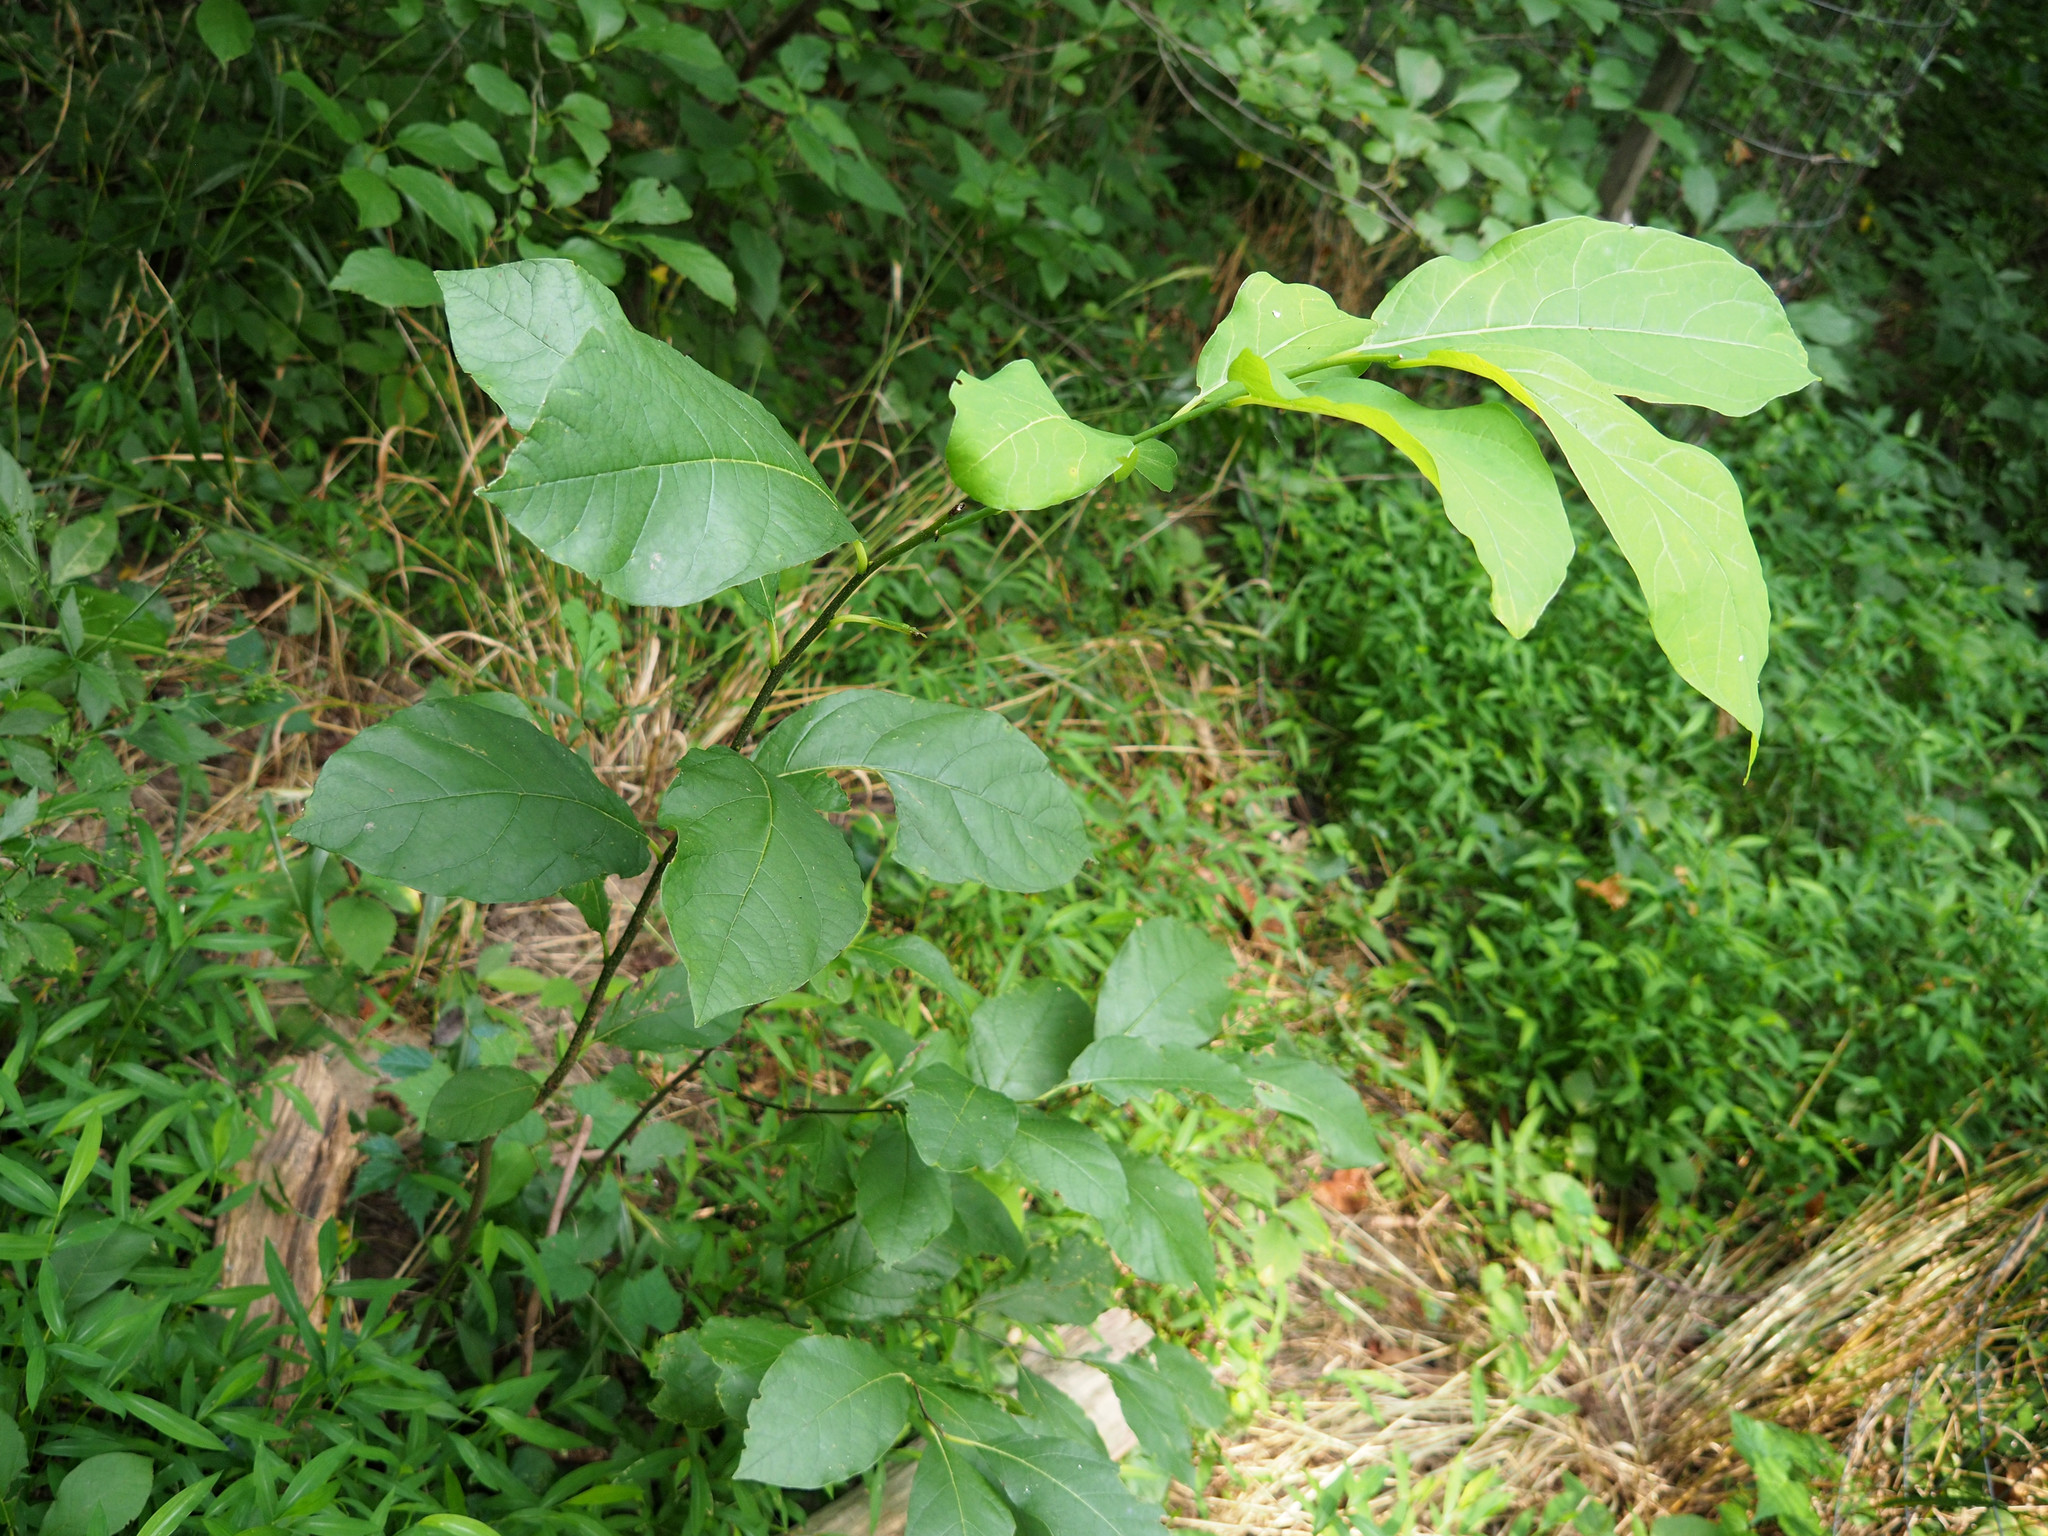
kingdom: Plantae
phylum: Tracheophyta
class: Magnoliopsida
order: Laurales
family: Lauraceae
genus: Lindera
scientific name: Lindera benzoin
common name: Spicebush
